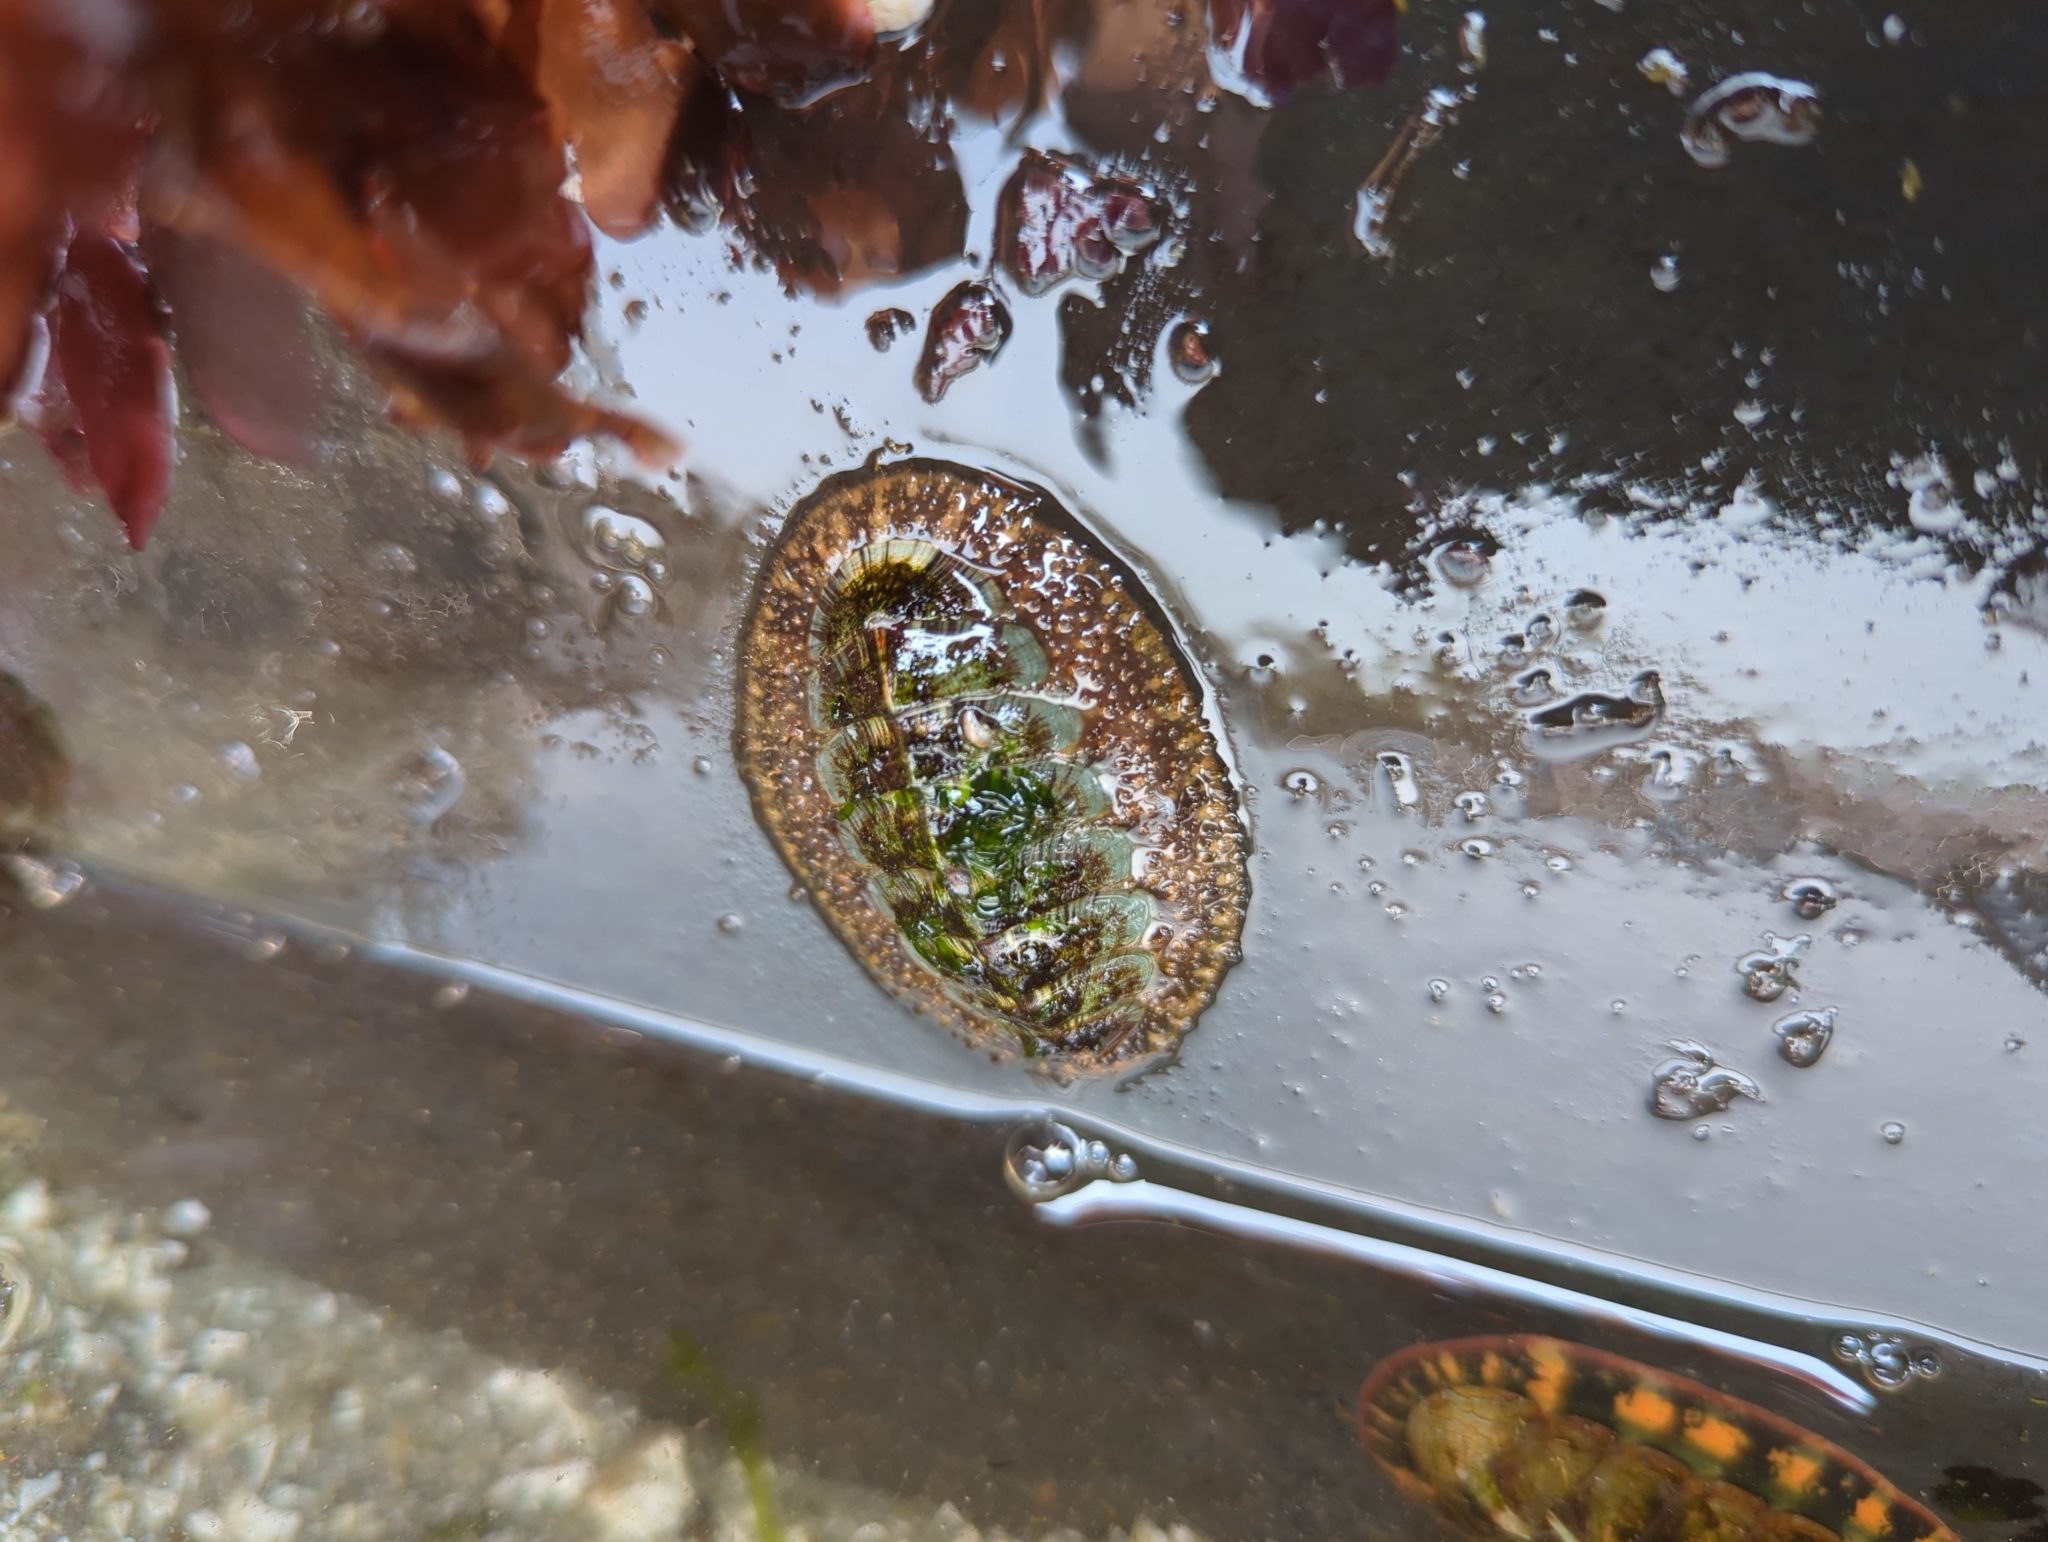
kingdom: Animalia
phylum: Mollusca
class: Polyplacophora
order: Chitonida
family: Mopaliidae
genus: Mopalia
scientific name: Mopalia lignosa
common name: Woody chiton
